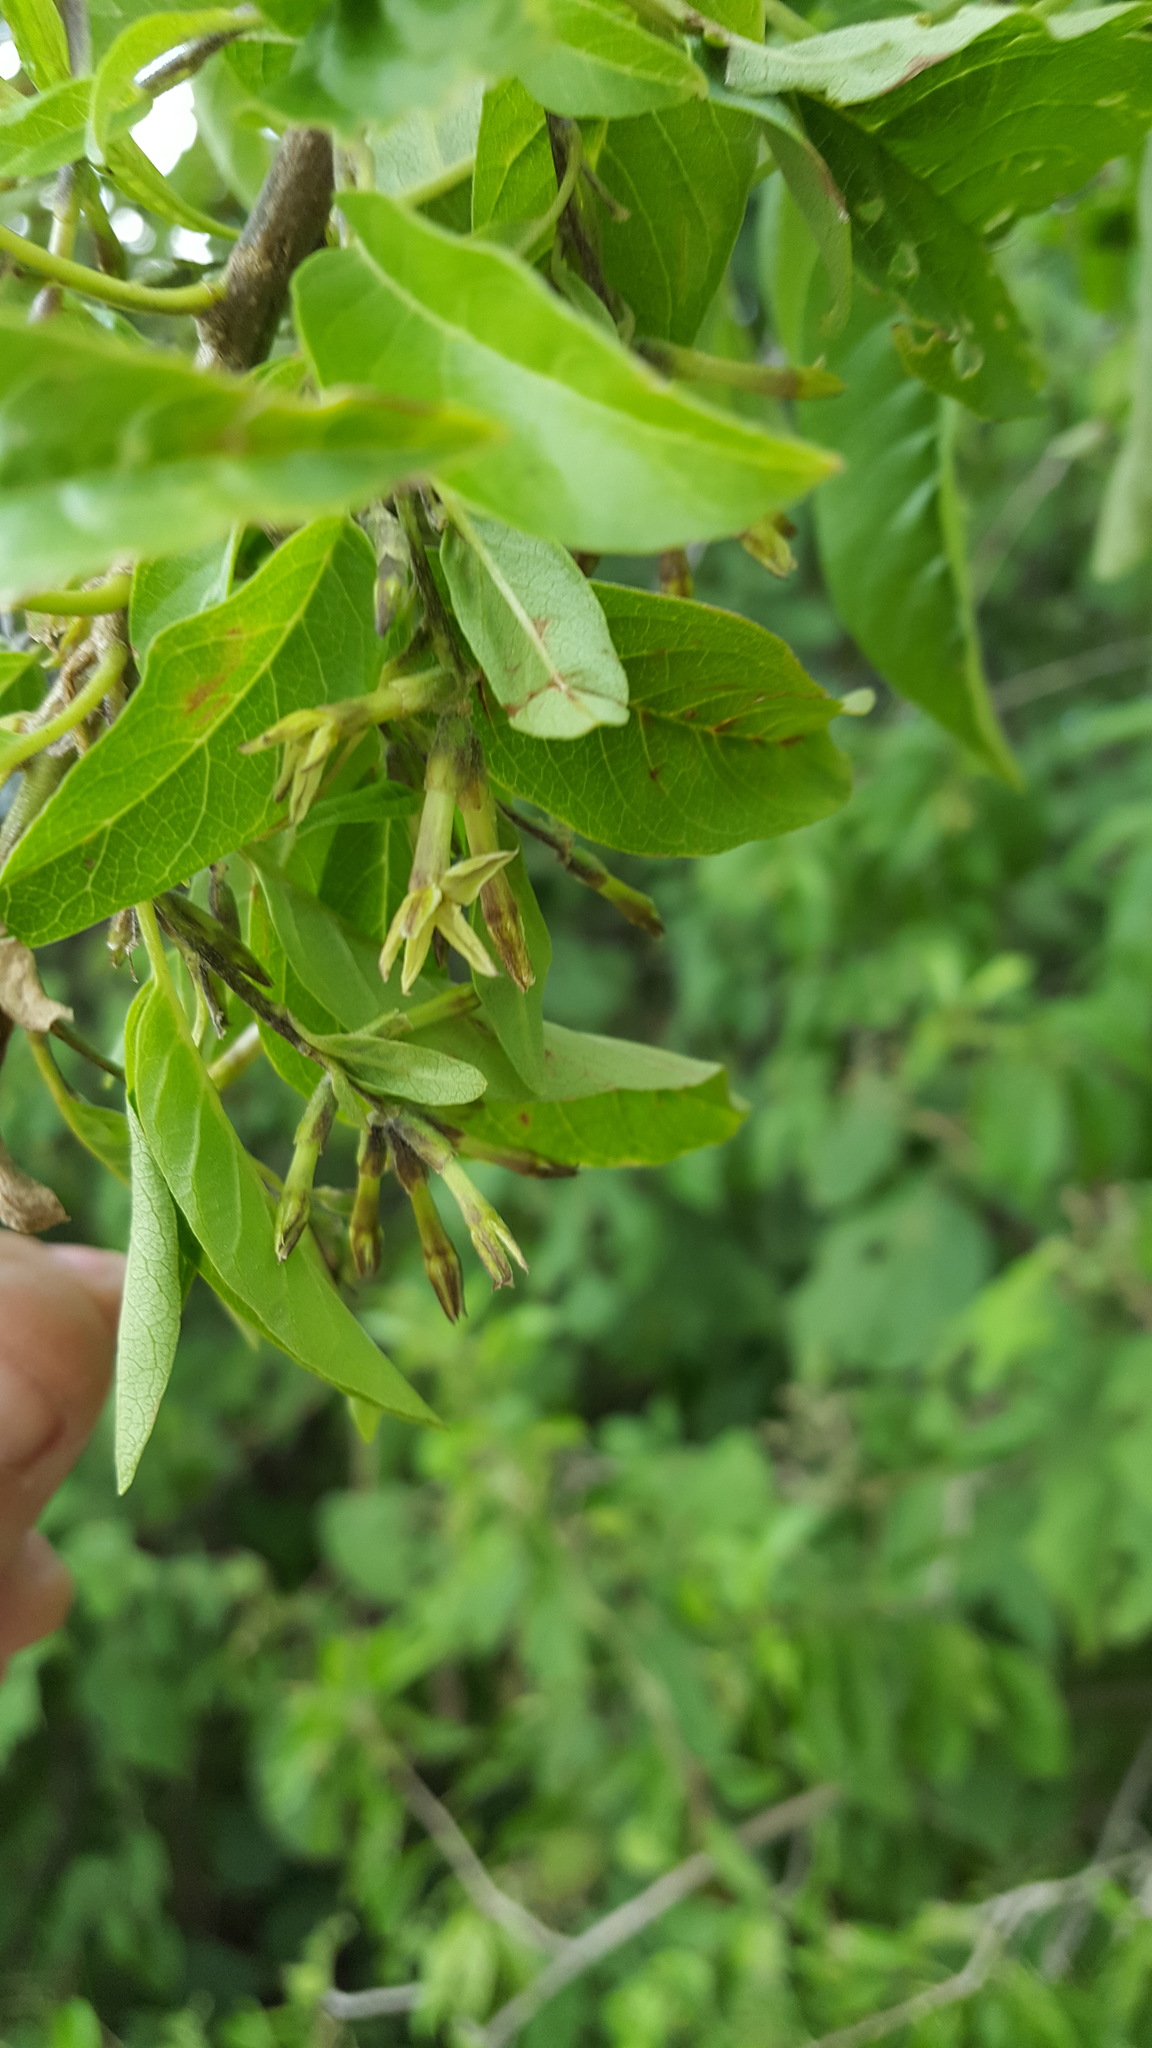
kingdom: Plantae
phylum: Tracheophyta
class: Magnoliopsida
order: Solanales
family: Solanaceae
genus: Cestrum
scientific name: Cestrum tomentosum
